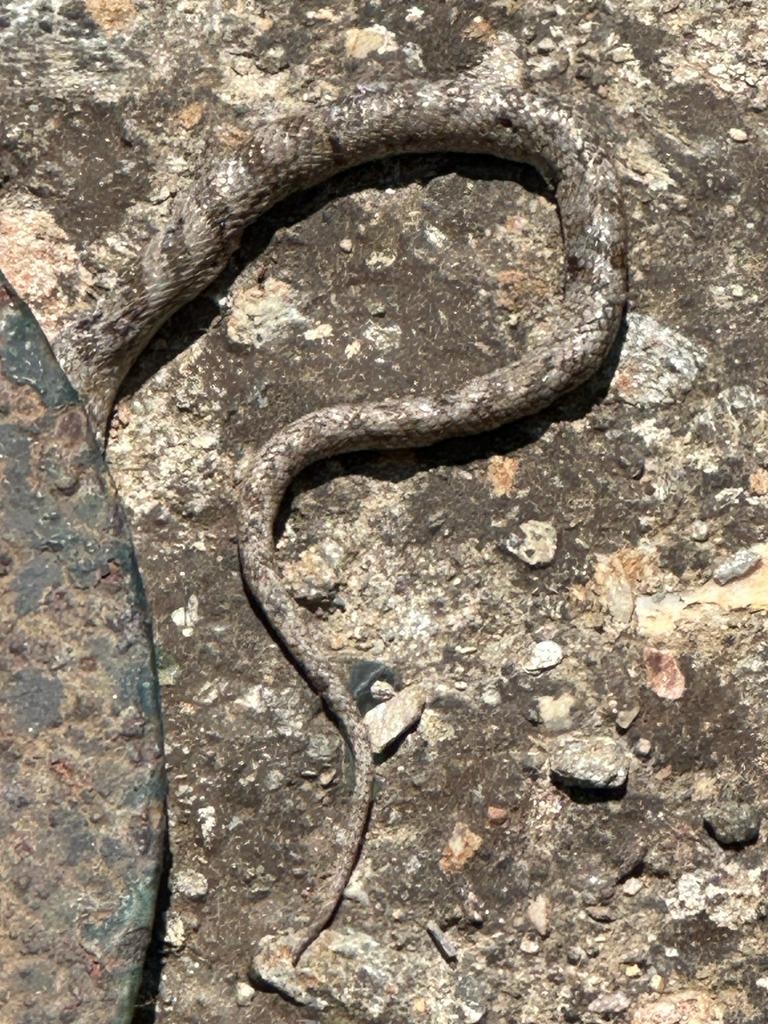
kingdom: Animalia
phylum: Chordata
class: Squamata
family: Colubridae
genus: Telescopus
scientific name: Telescopus fallax
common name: Cat snake
